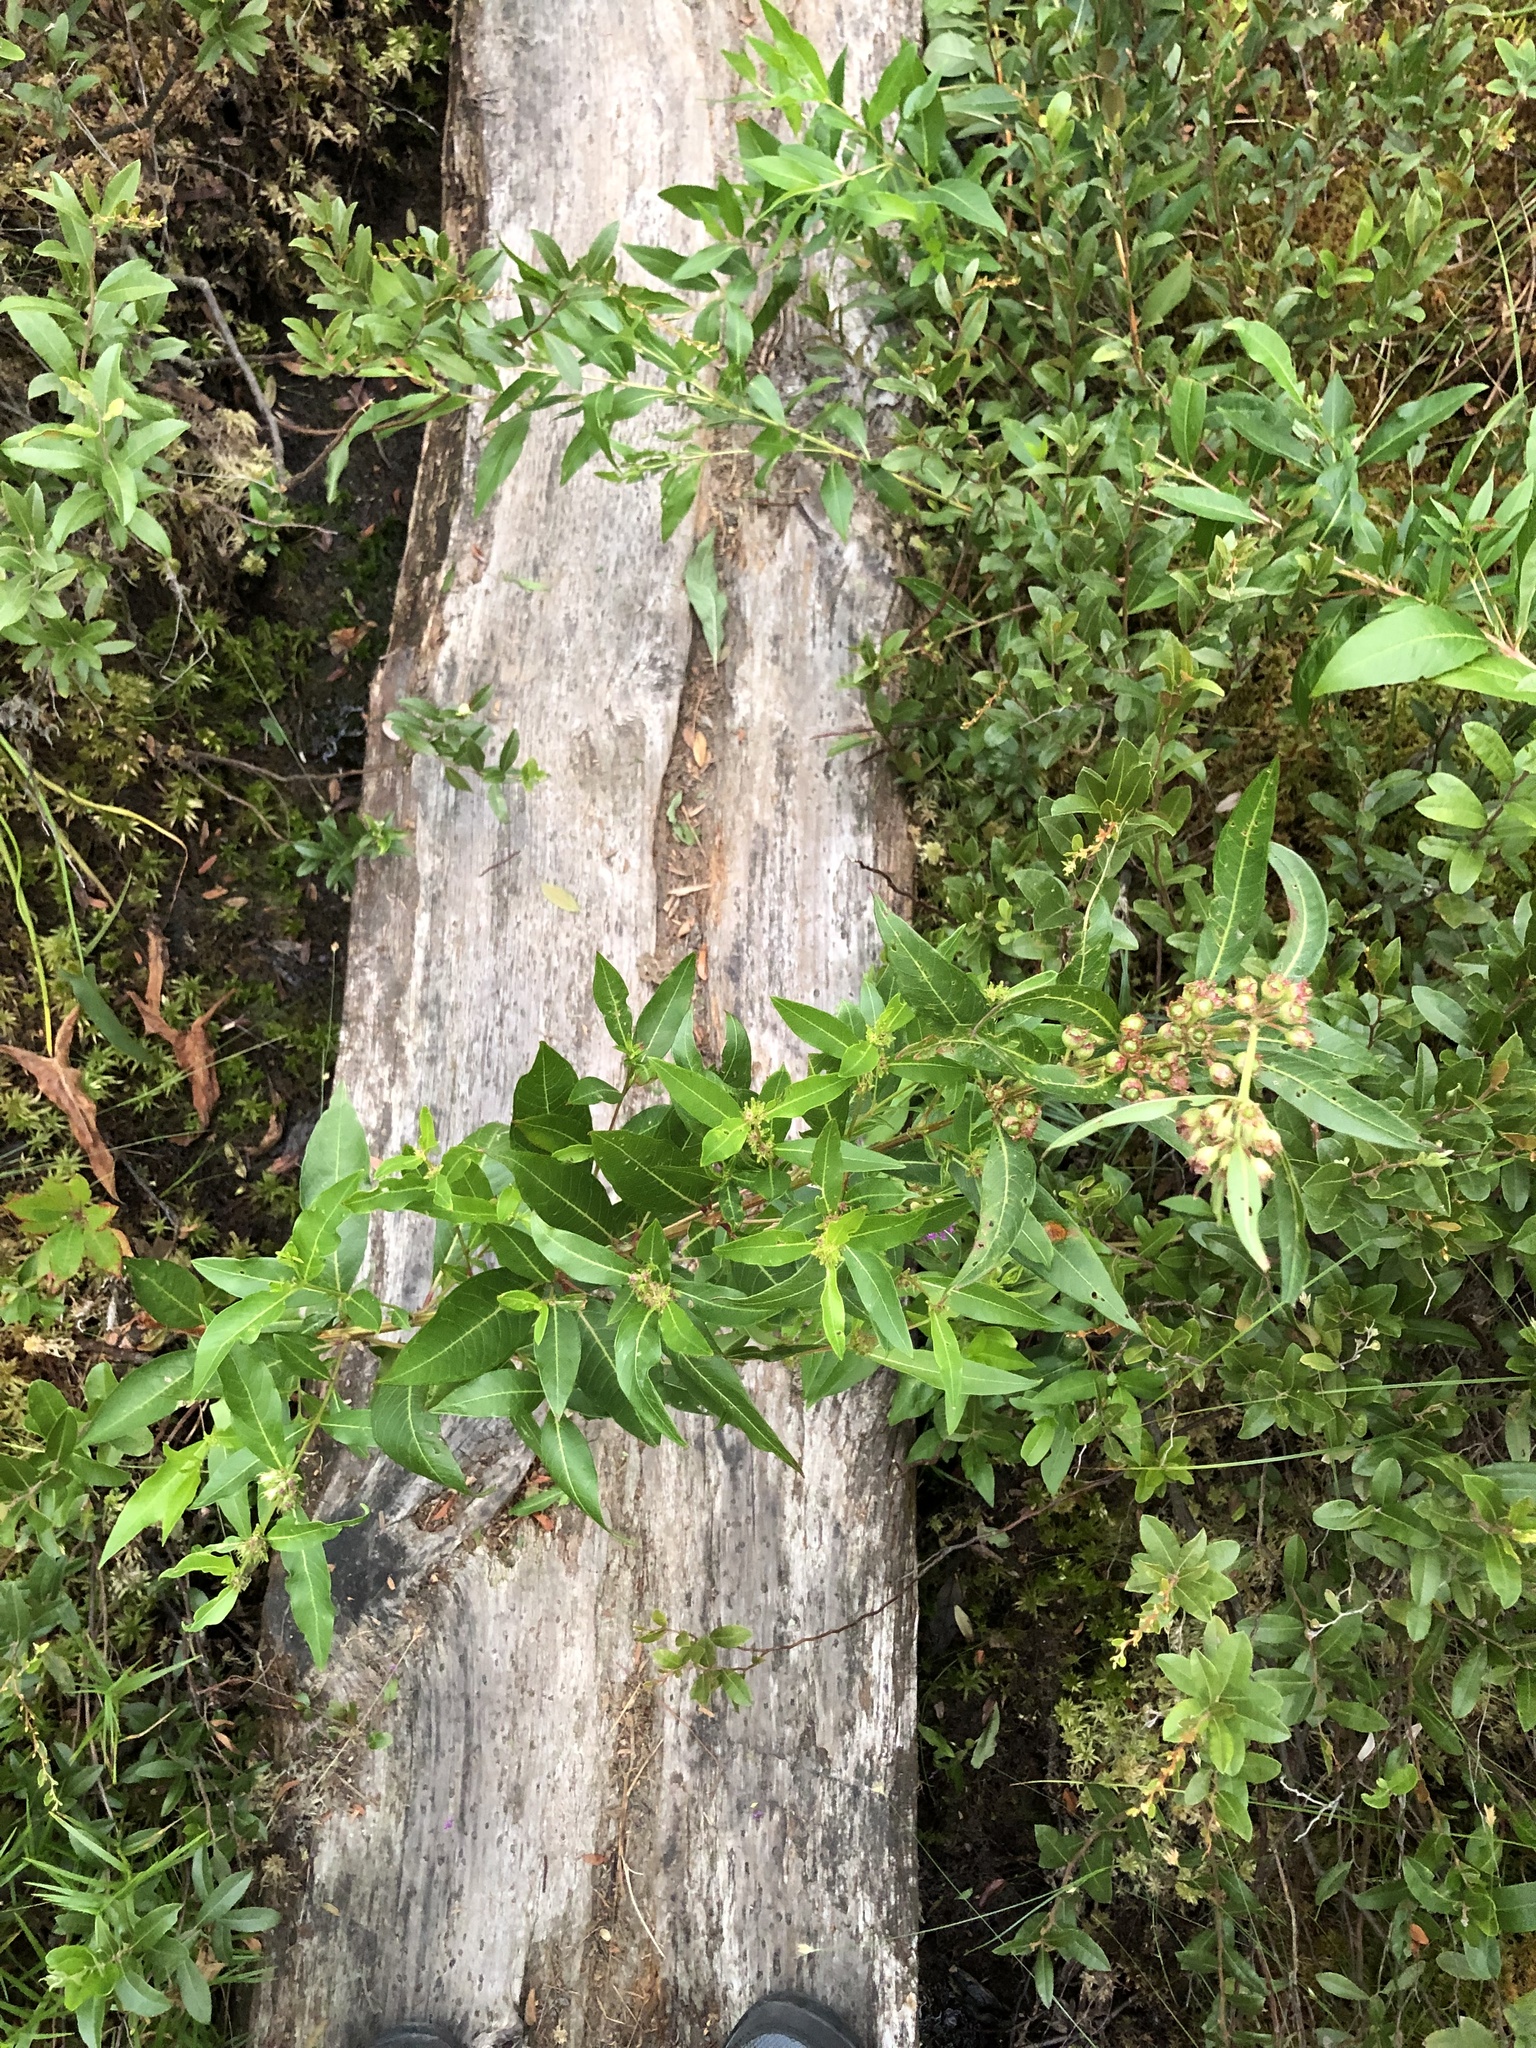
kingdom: Plantae
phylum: Tracheophyta
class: Magnoliopsida
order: Myrtales
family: Lythraceae
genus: Decodon
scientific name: Decodon verticillatus
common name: Hairy swamp loosestrife
